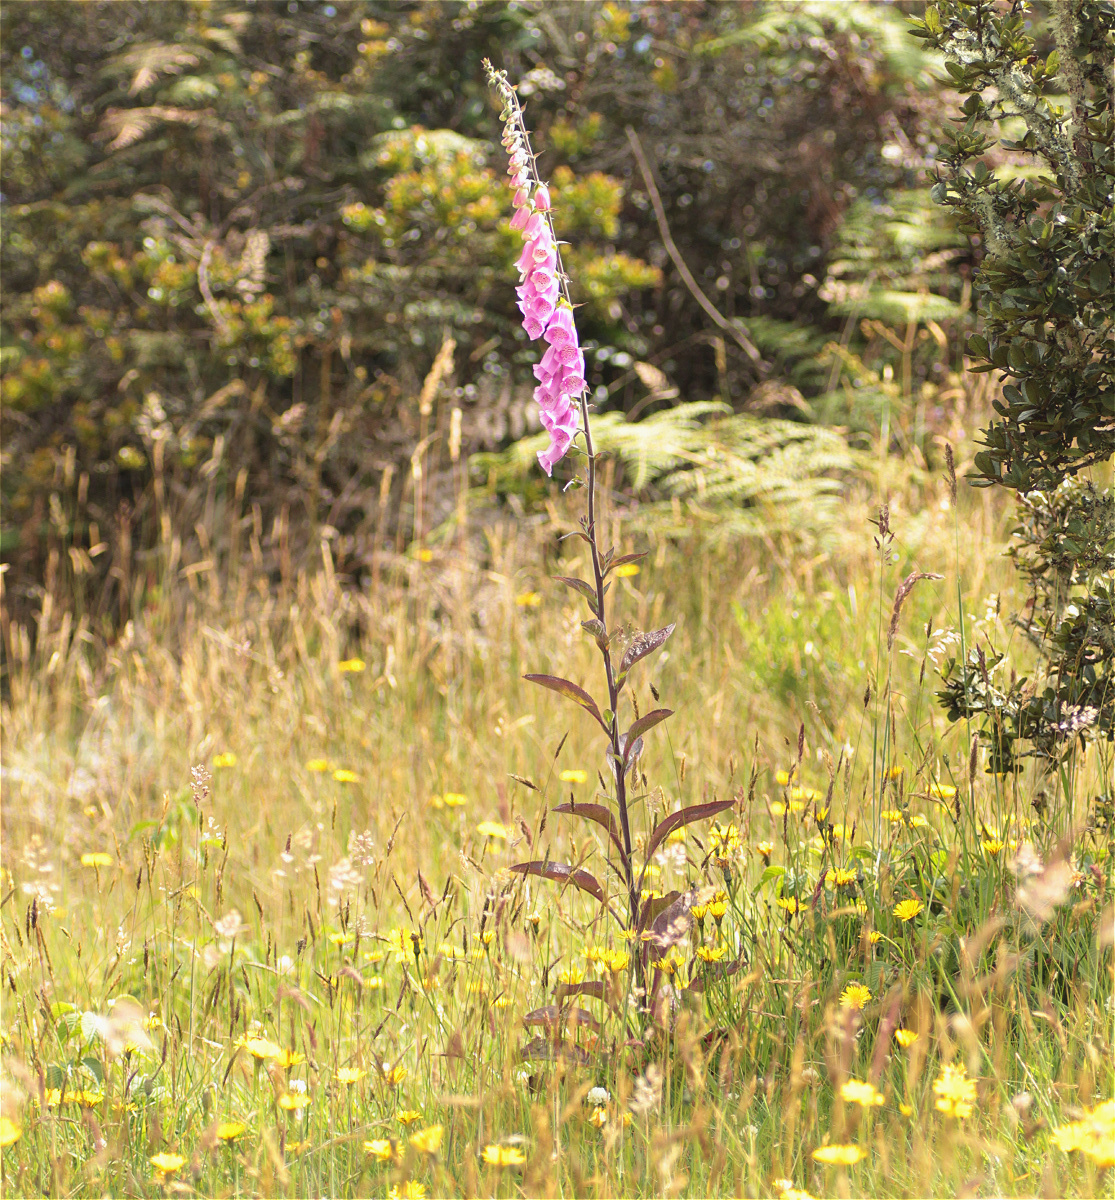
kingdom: Plantae
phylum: Tracheophyta
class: Magnoliopsida
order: Lamiales
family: Plantaginaceae
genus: Digitalis
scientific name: Digitalis purpurea
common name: Foxglove
